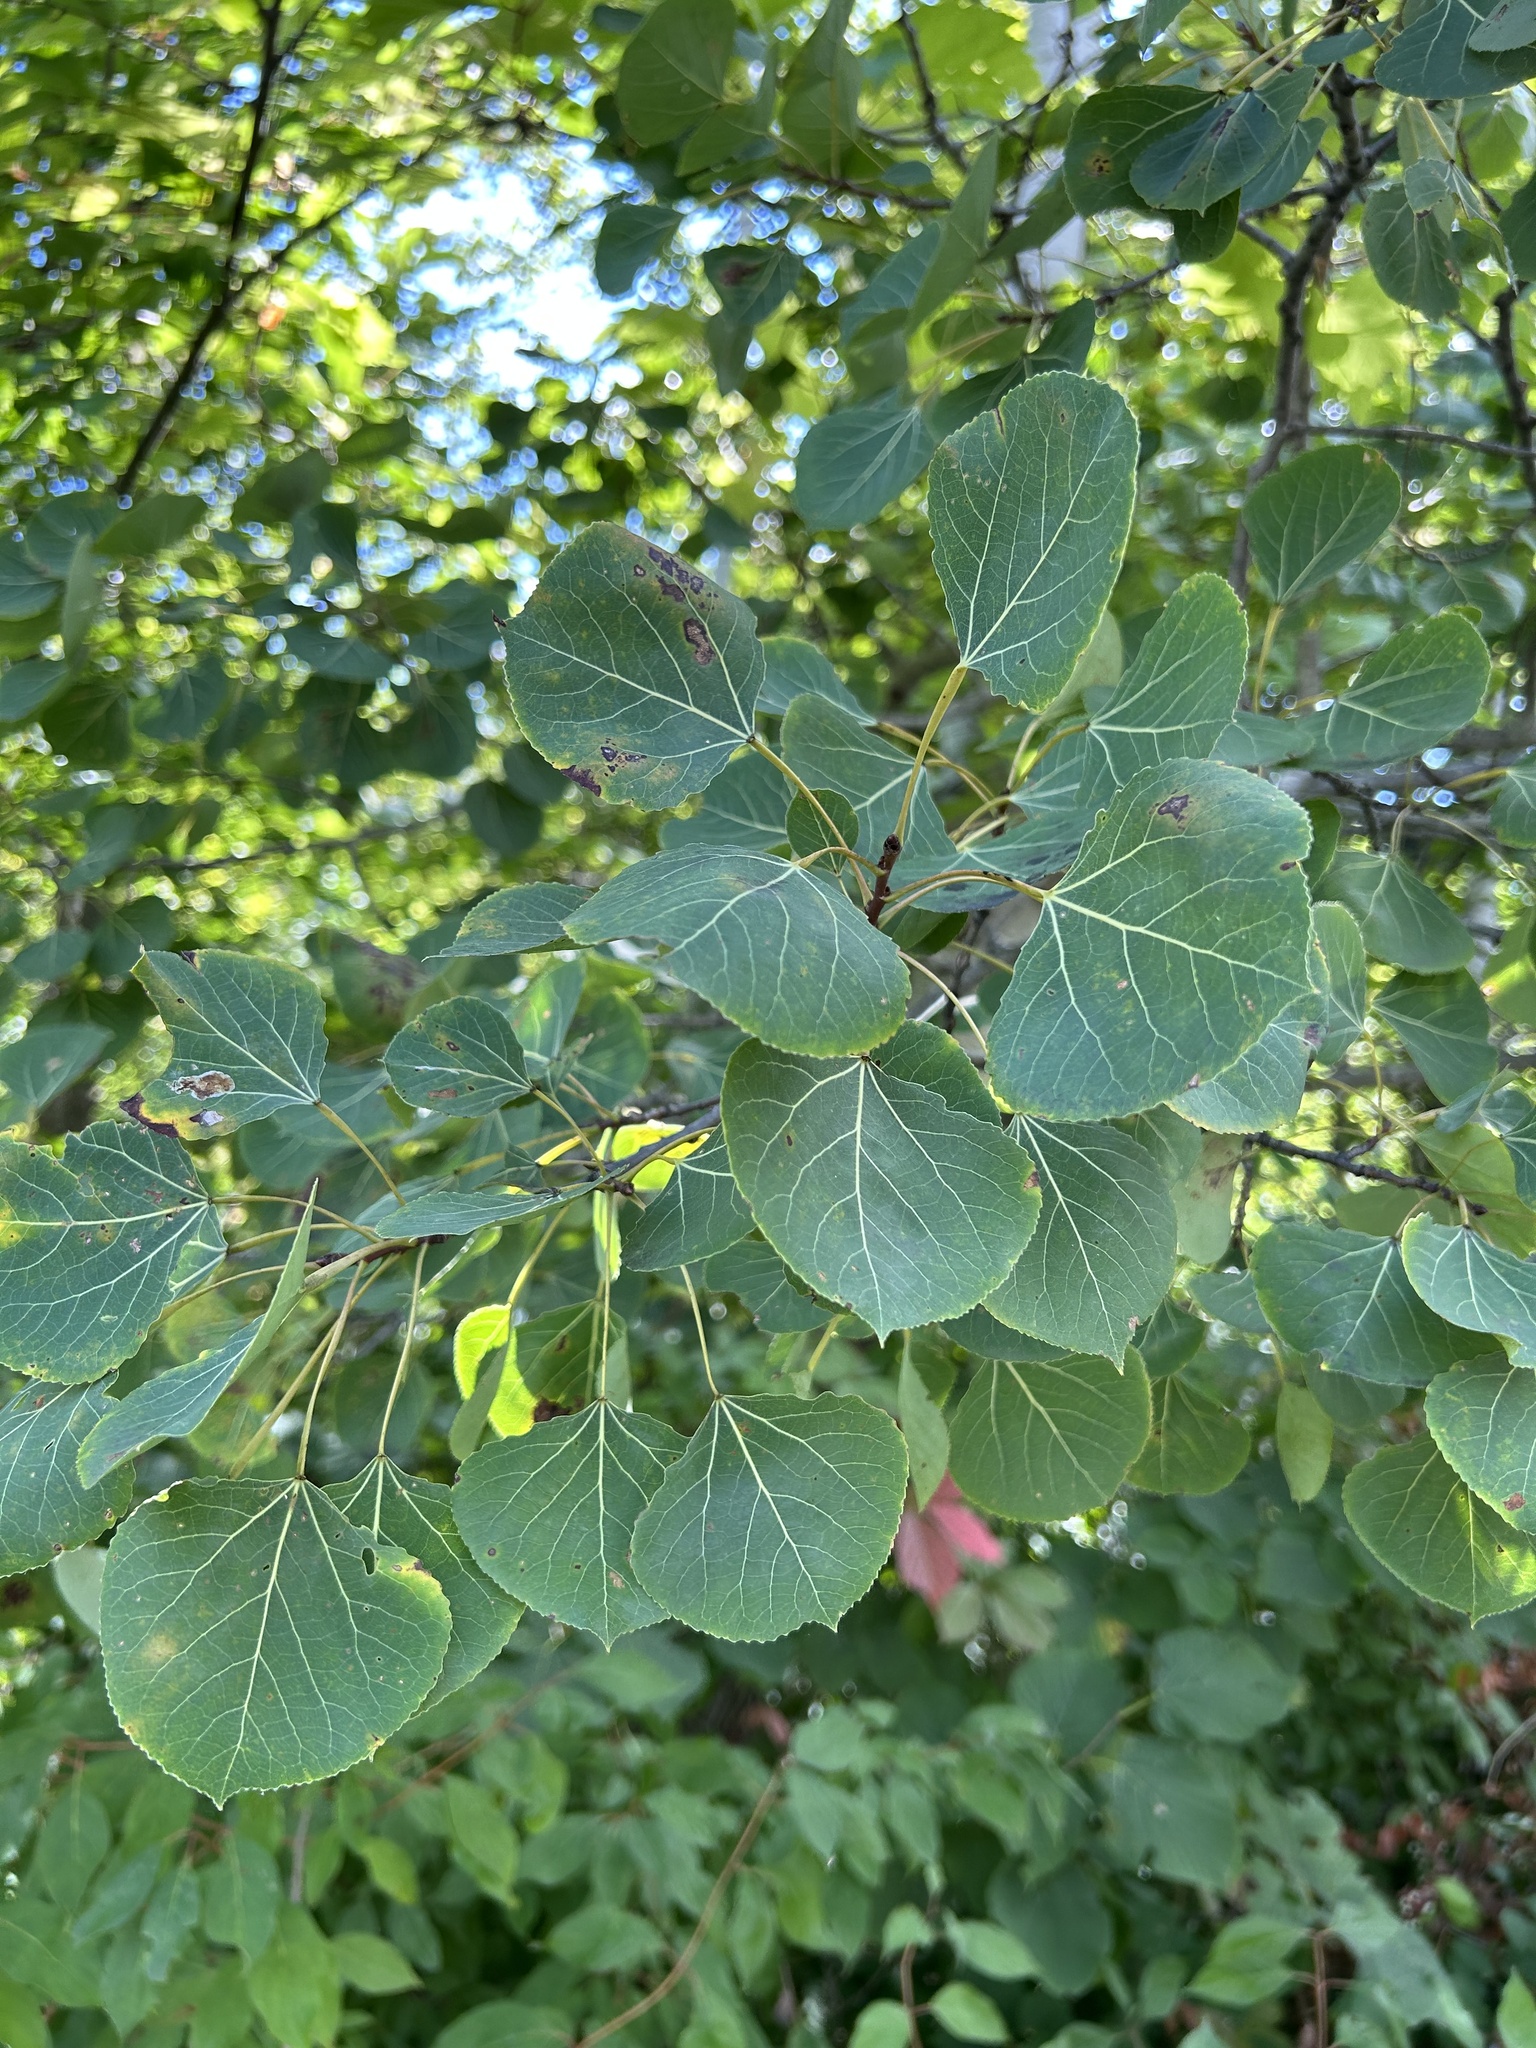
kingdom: Plantae
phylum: Tracheophyta
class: Magnoliopsida
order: Malpighiales
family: Salicaceae
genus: Populus
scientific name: Populus tremuloides
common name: Quaking aspen
